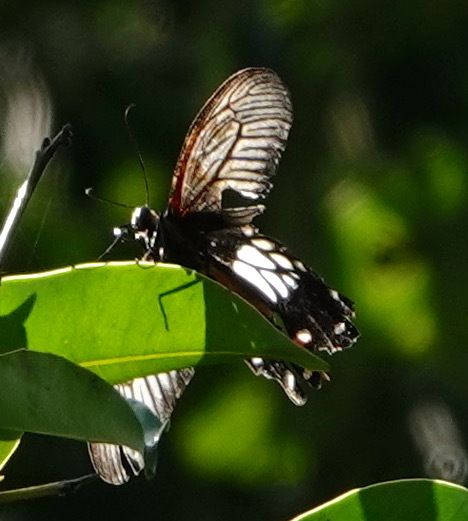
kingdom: Animalia
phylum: Arthropoda
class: Insecta
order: Lepidoptera
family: Papilionidae
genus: Losaria
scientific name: Losaria
